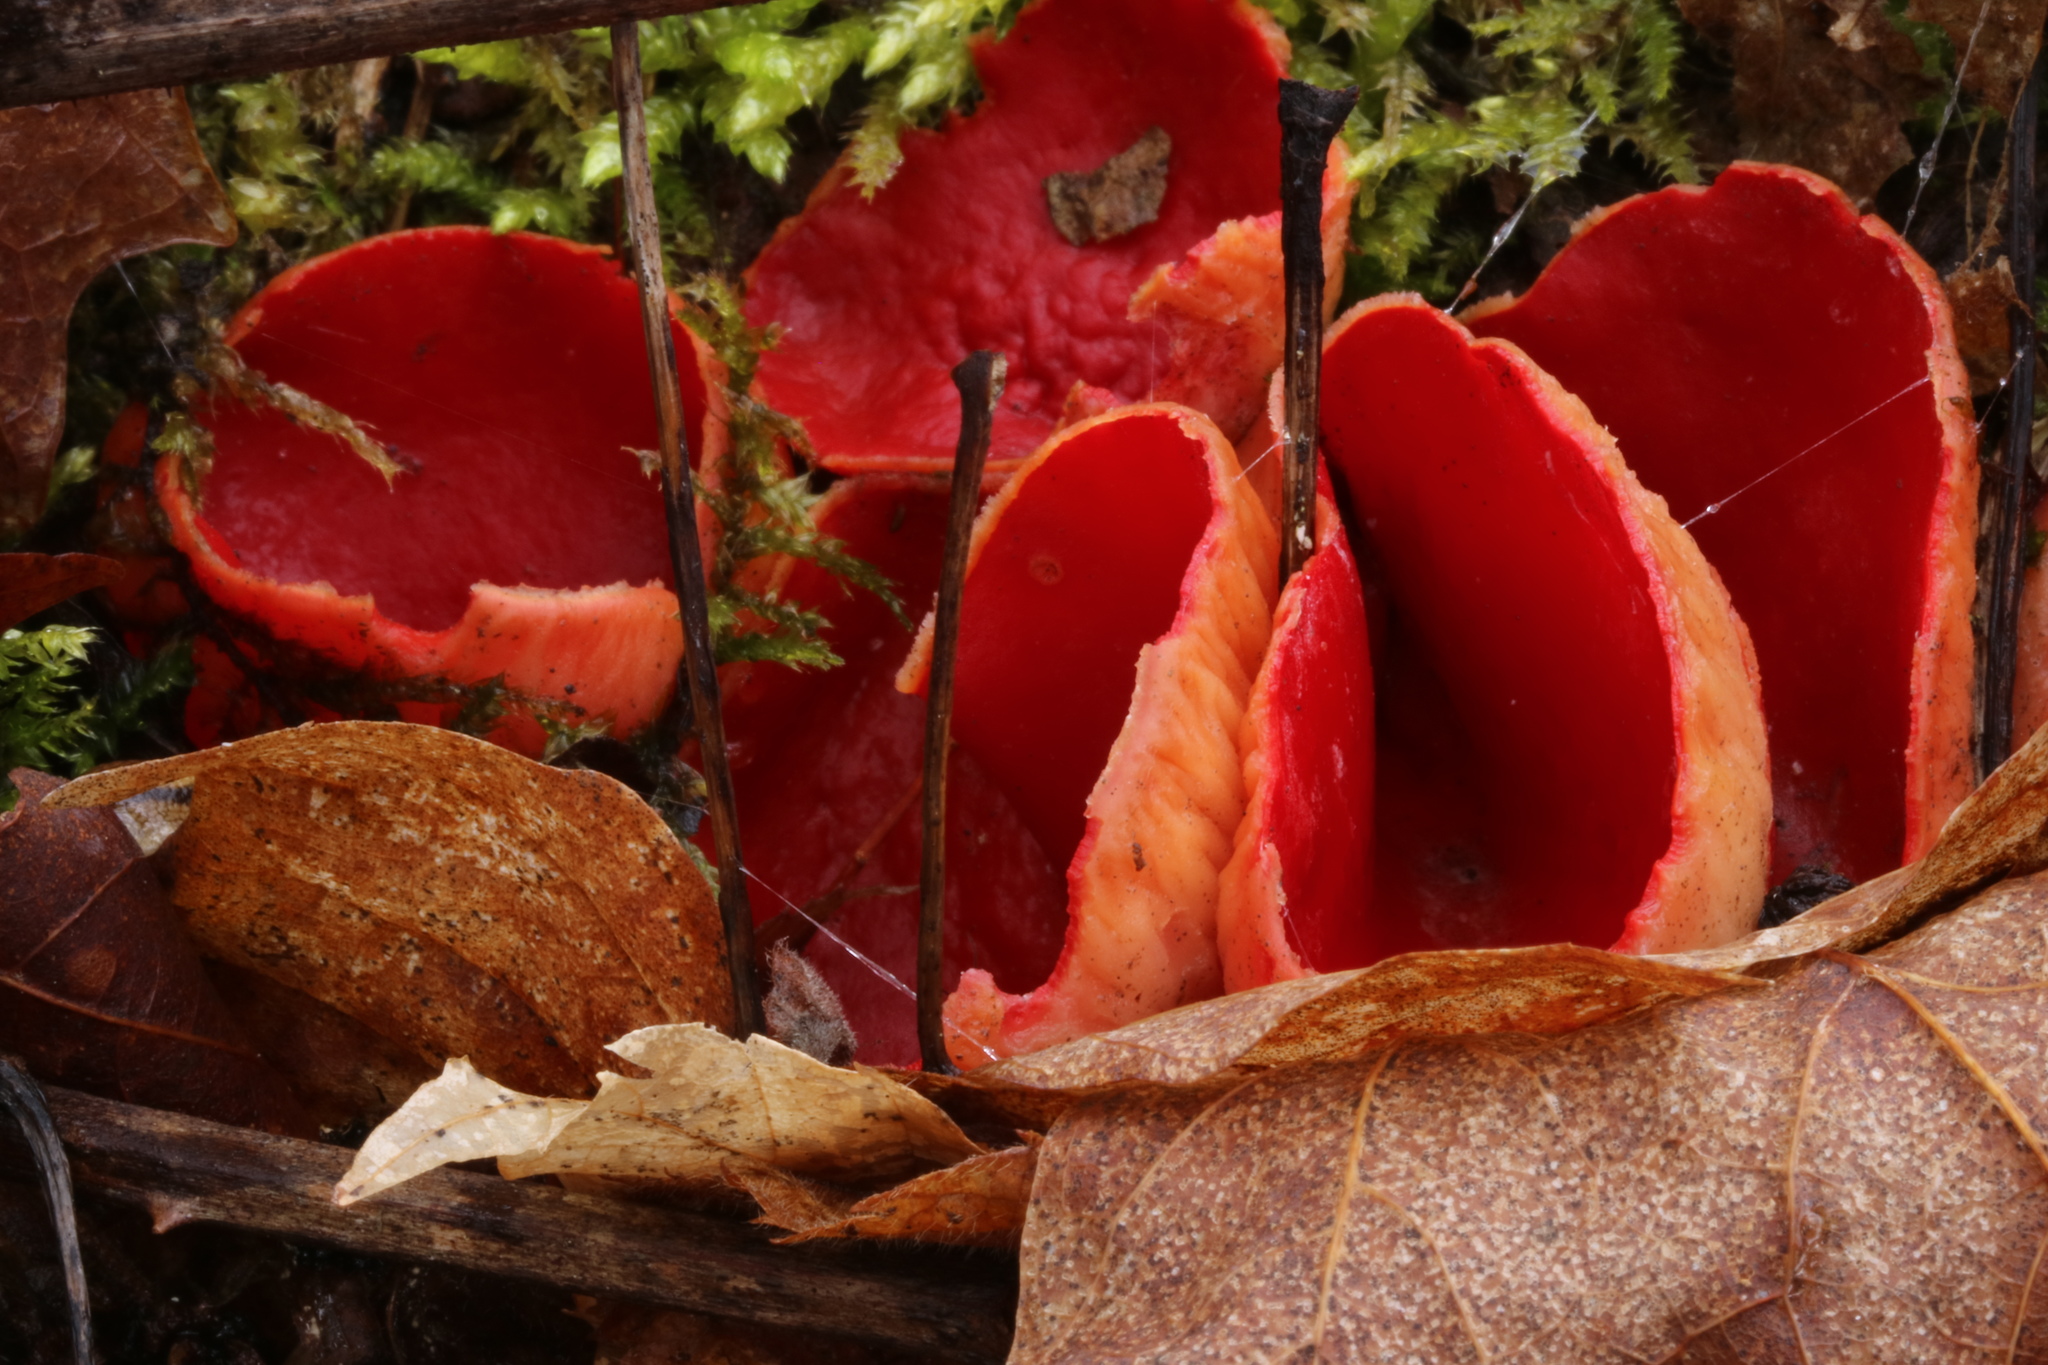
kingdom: Fungi
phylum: Ascomycota
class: Pezizomycetes
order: Pezizales
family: Sarcoscyphaceae
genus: Sarcoscypha
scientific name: Sarcoscypha austriaca
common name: Scarlet elfcup
